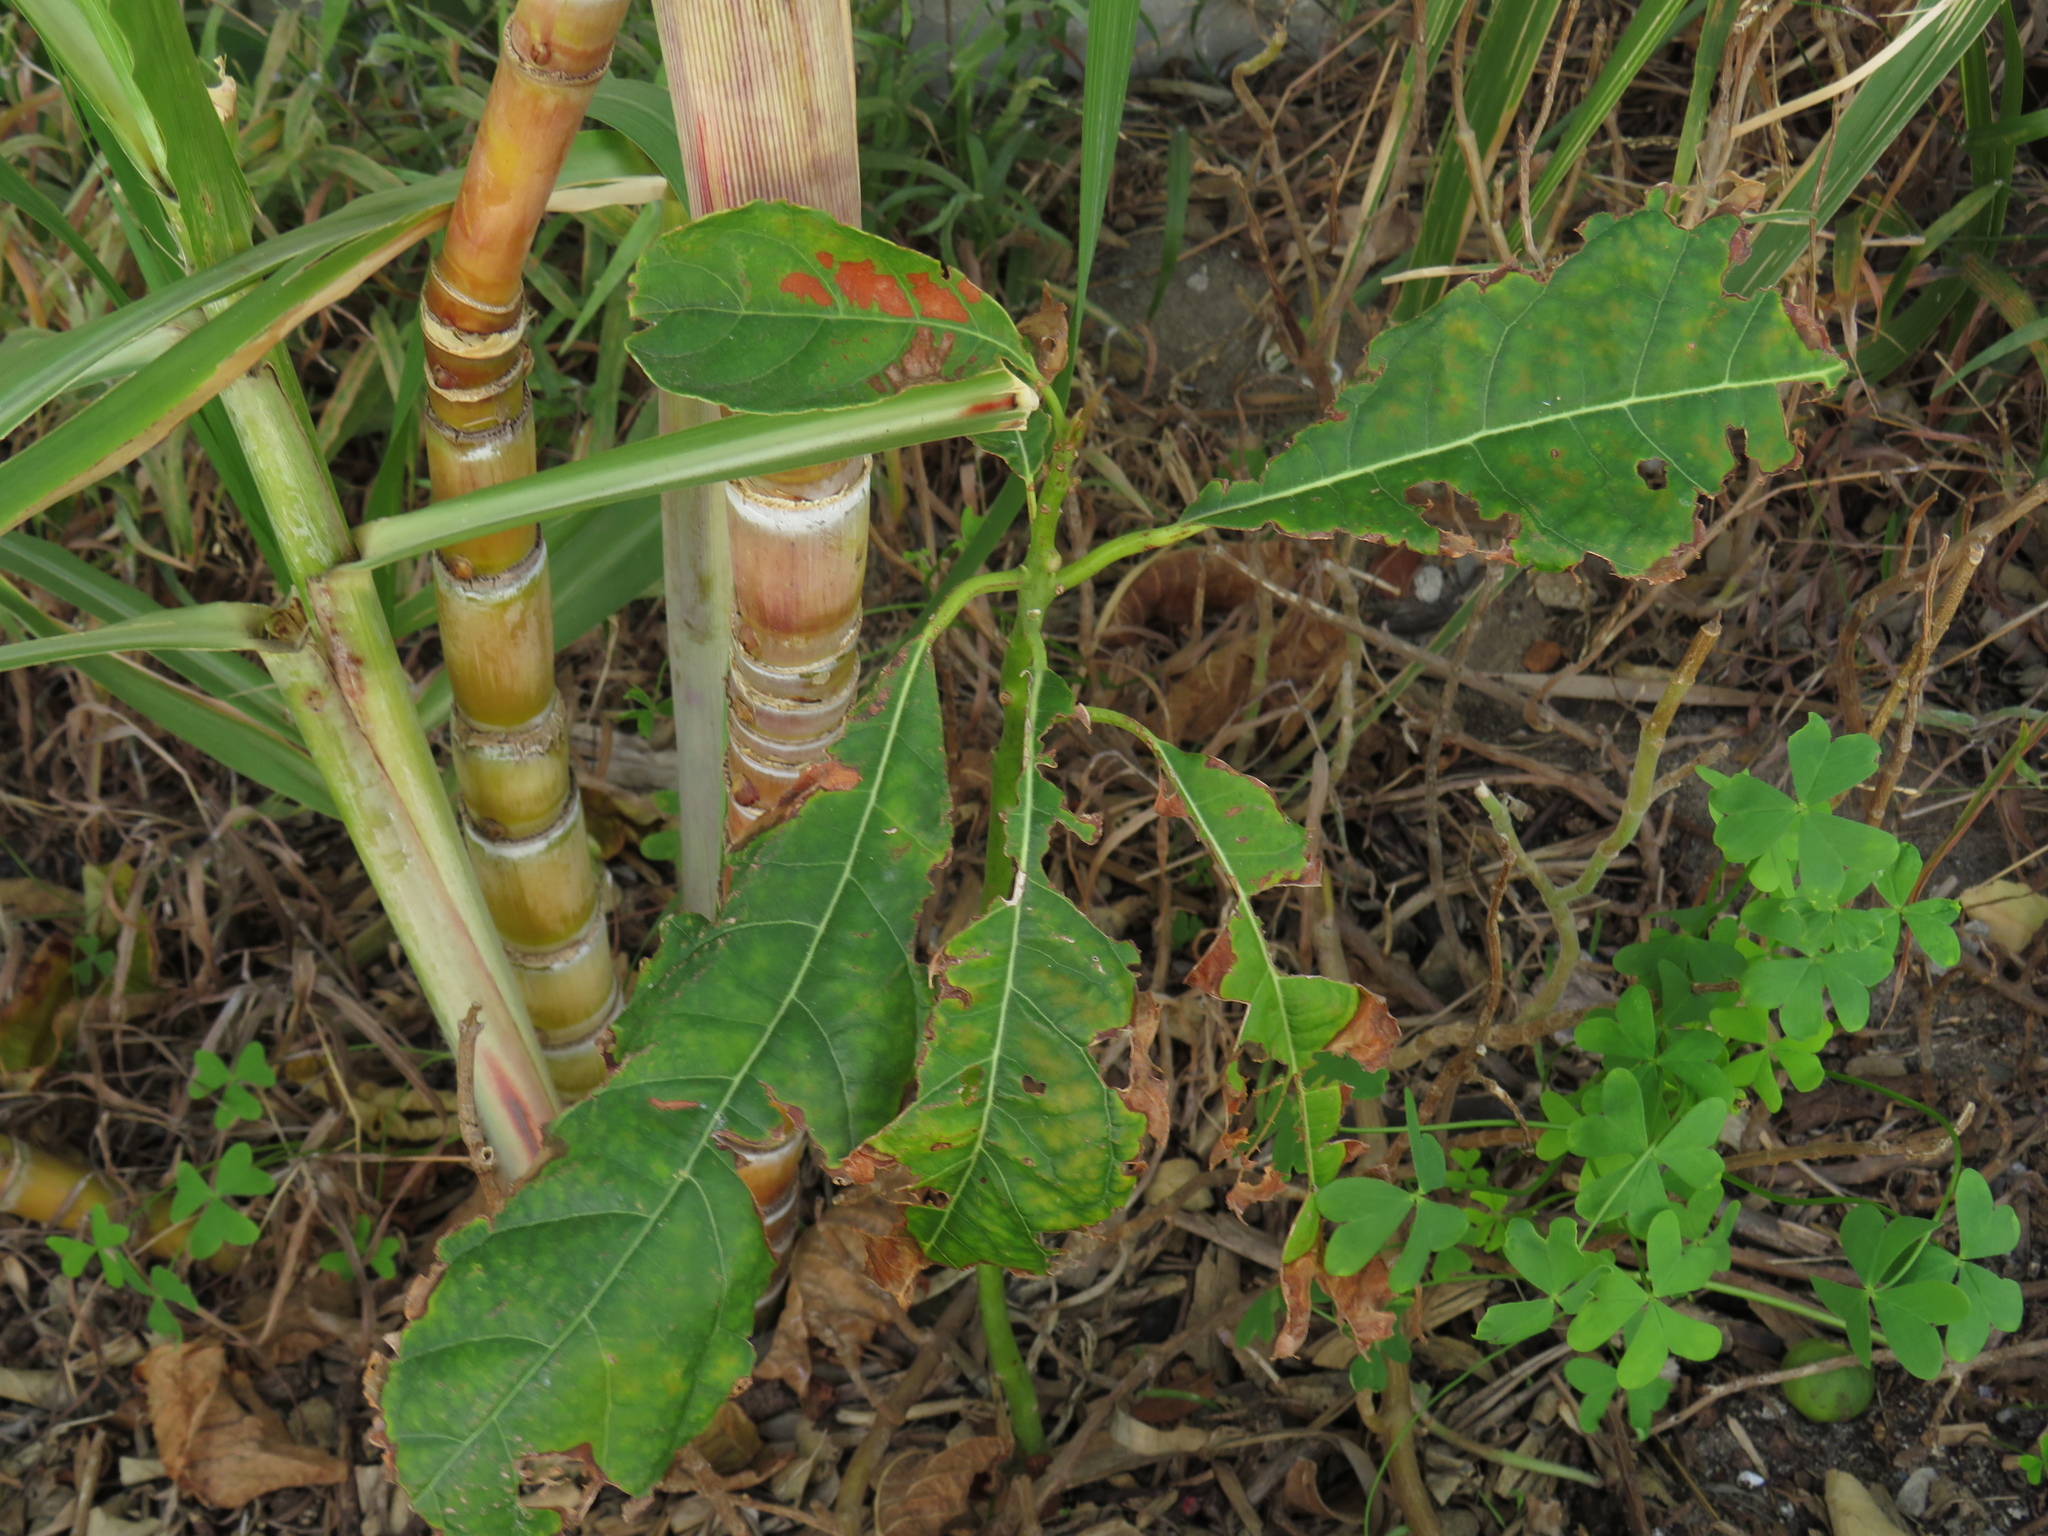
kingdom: Plantae
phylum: Tracheophyta
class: Magnoliopsida
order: Laurales
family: Lauraceae
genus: Persea
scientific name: Persea americana
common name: Avocado
